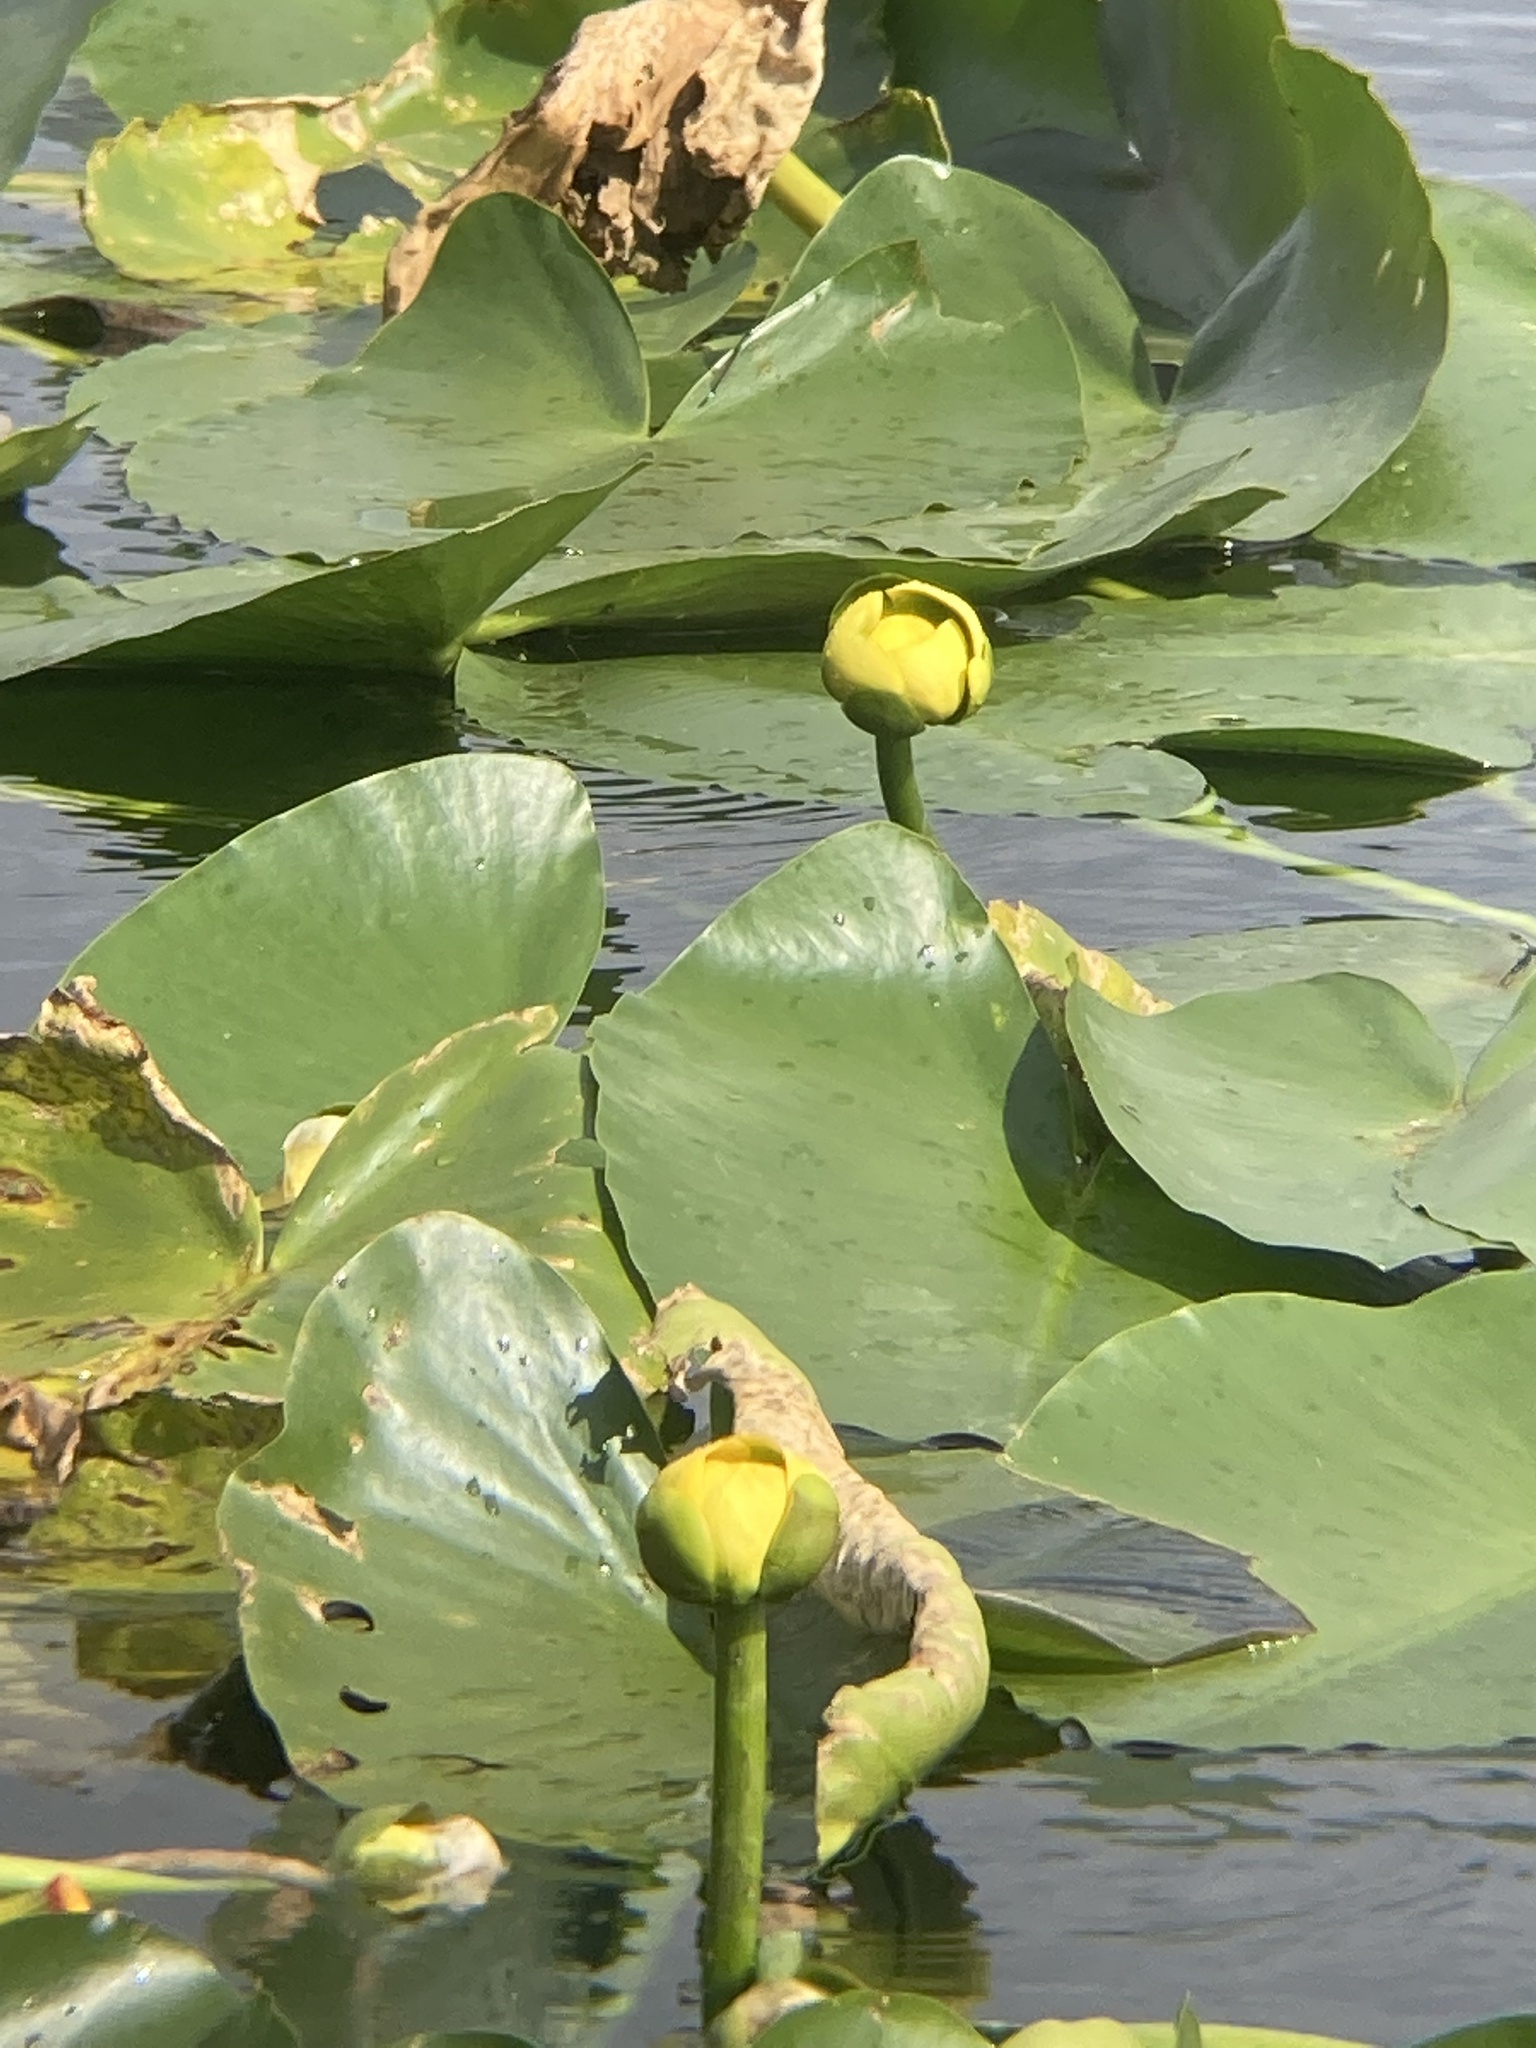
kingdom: Plantae
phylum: Tracheophyta
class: Magnoliopsida
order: Nymphaeales
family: Nymphaeaceae
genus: Nuphar
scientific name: Nuphar advena
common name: Spatter-dock
